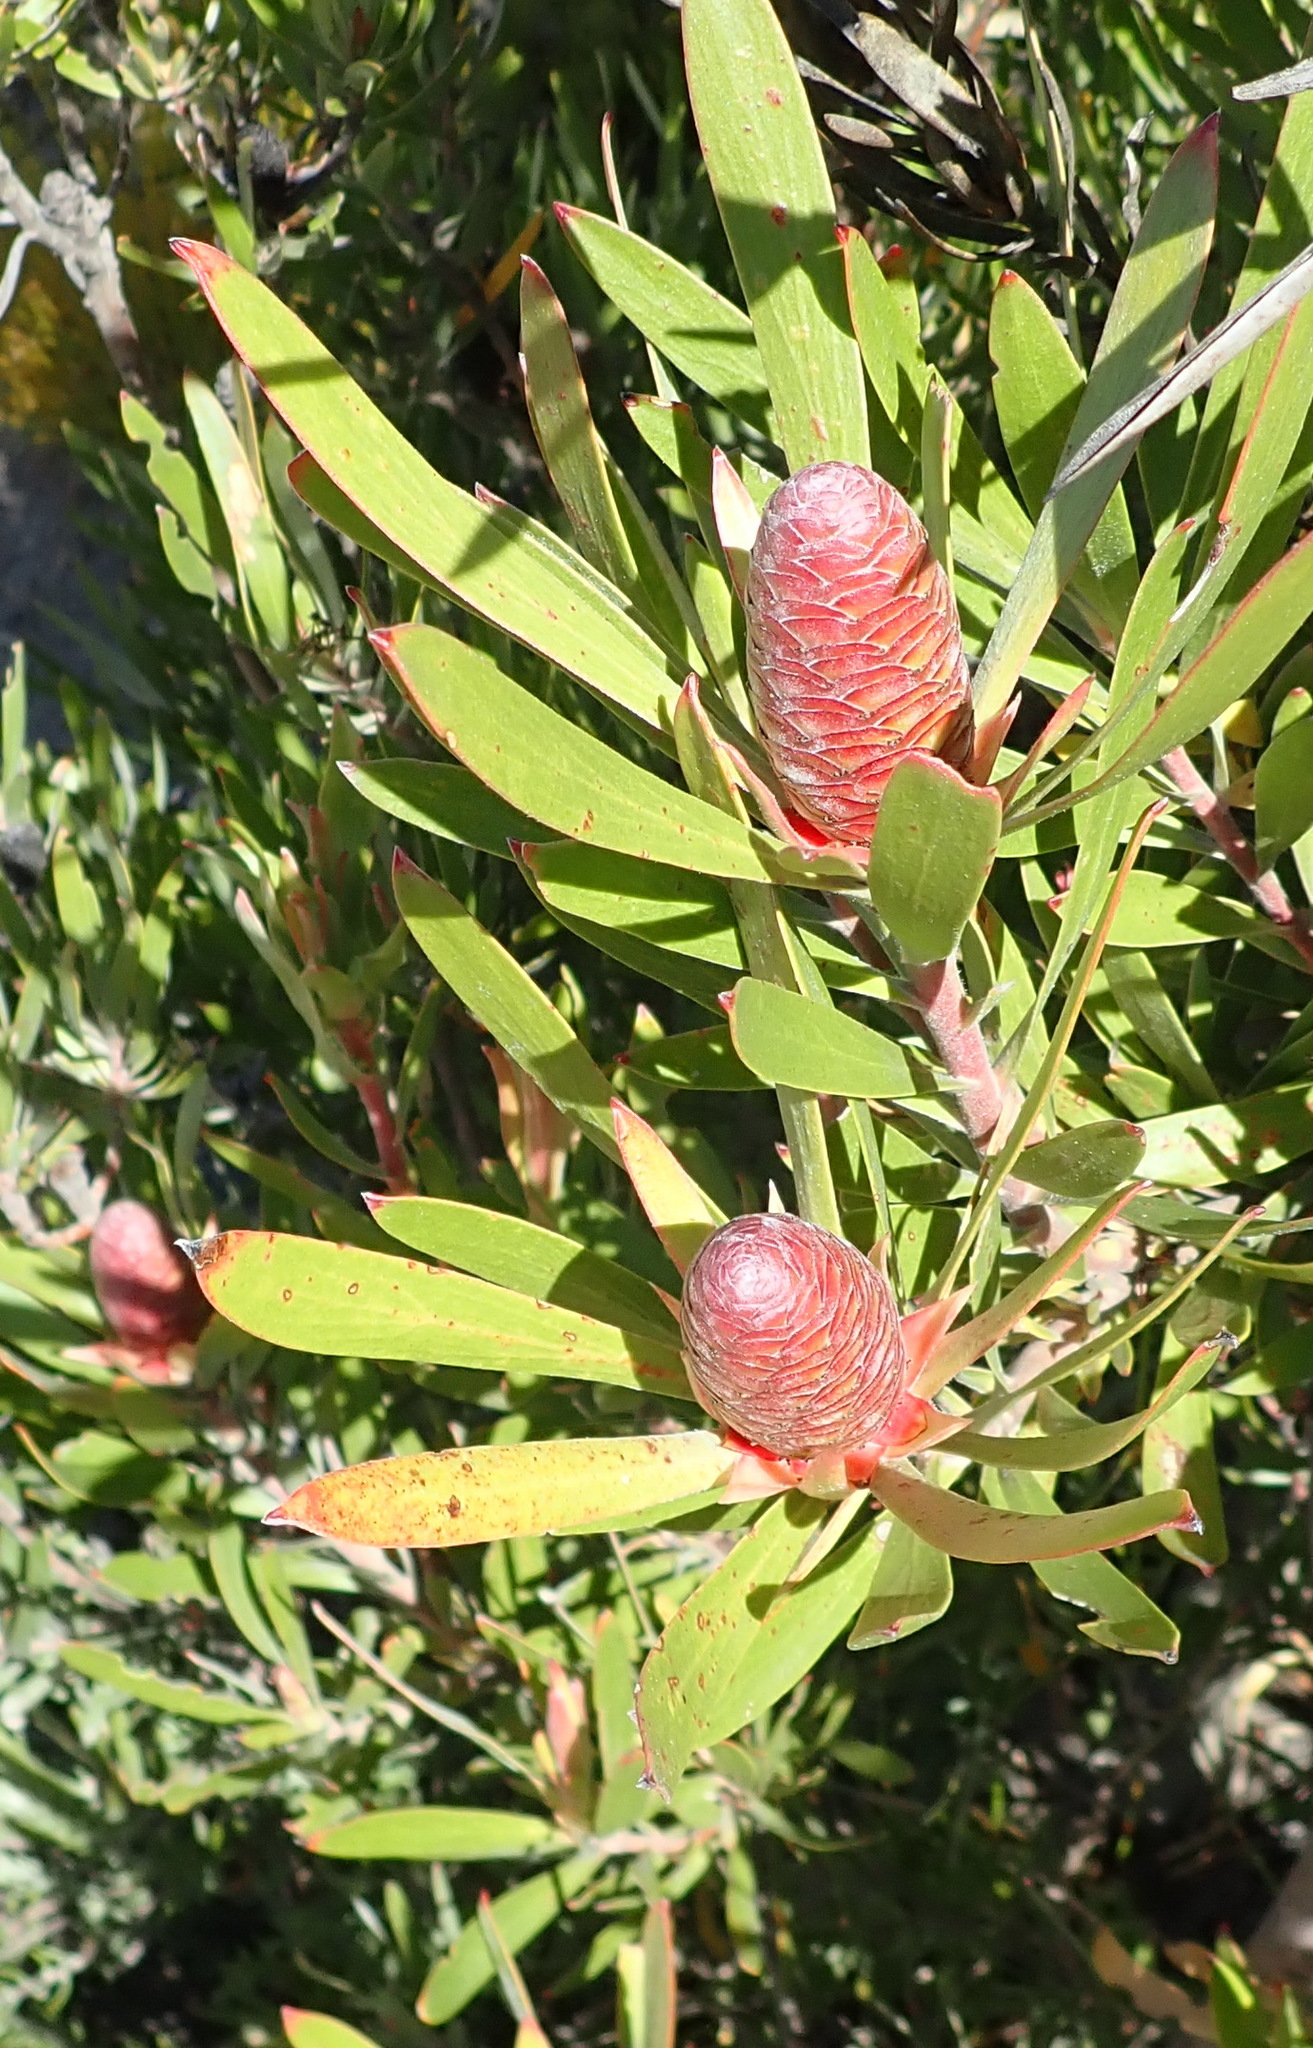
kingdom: Plantae
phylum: Tracheophyta
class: Magnoliopsida
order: Proteales
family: Proteaceae
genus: Leucadendron
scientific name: Leucadendron eucalyptifolium
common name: Gum-leaved conebush
